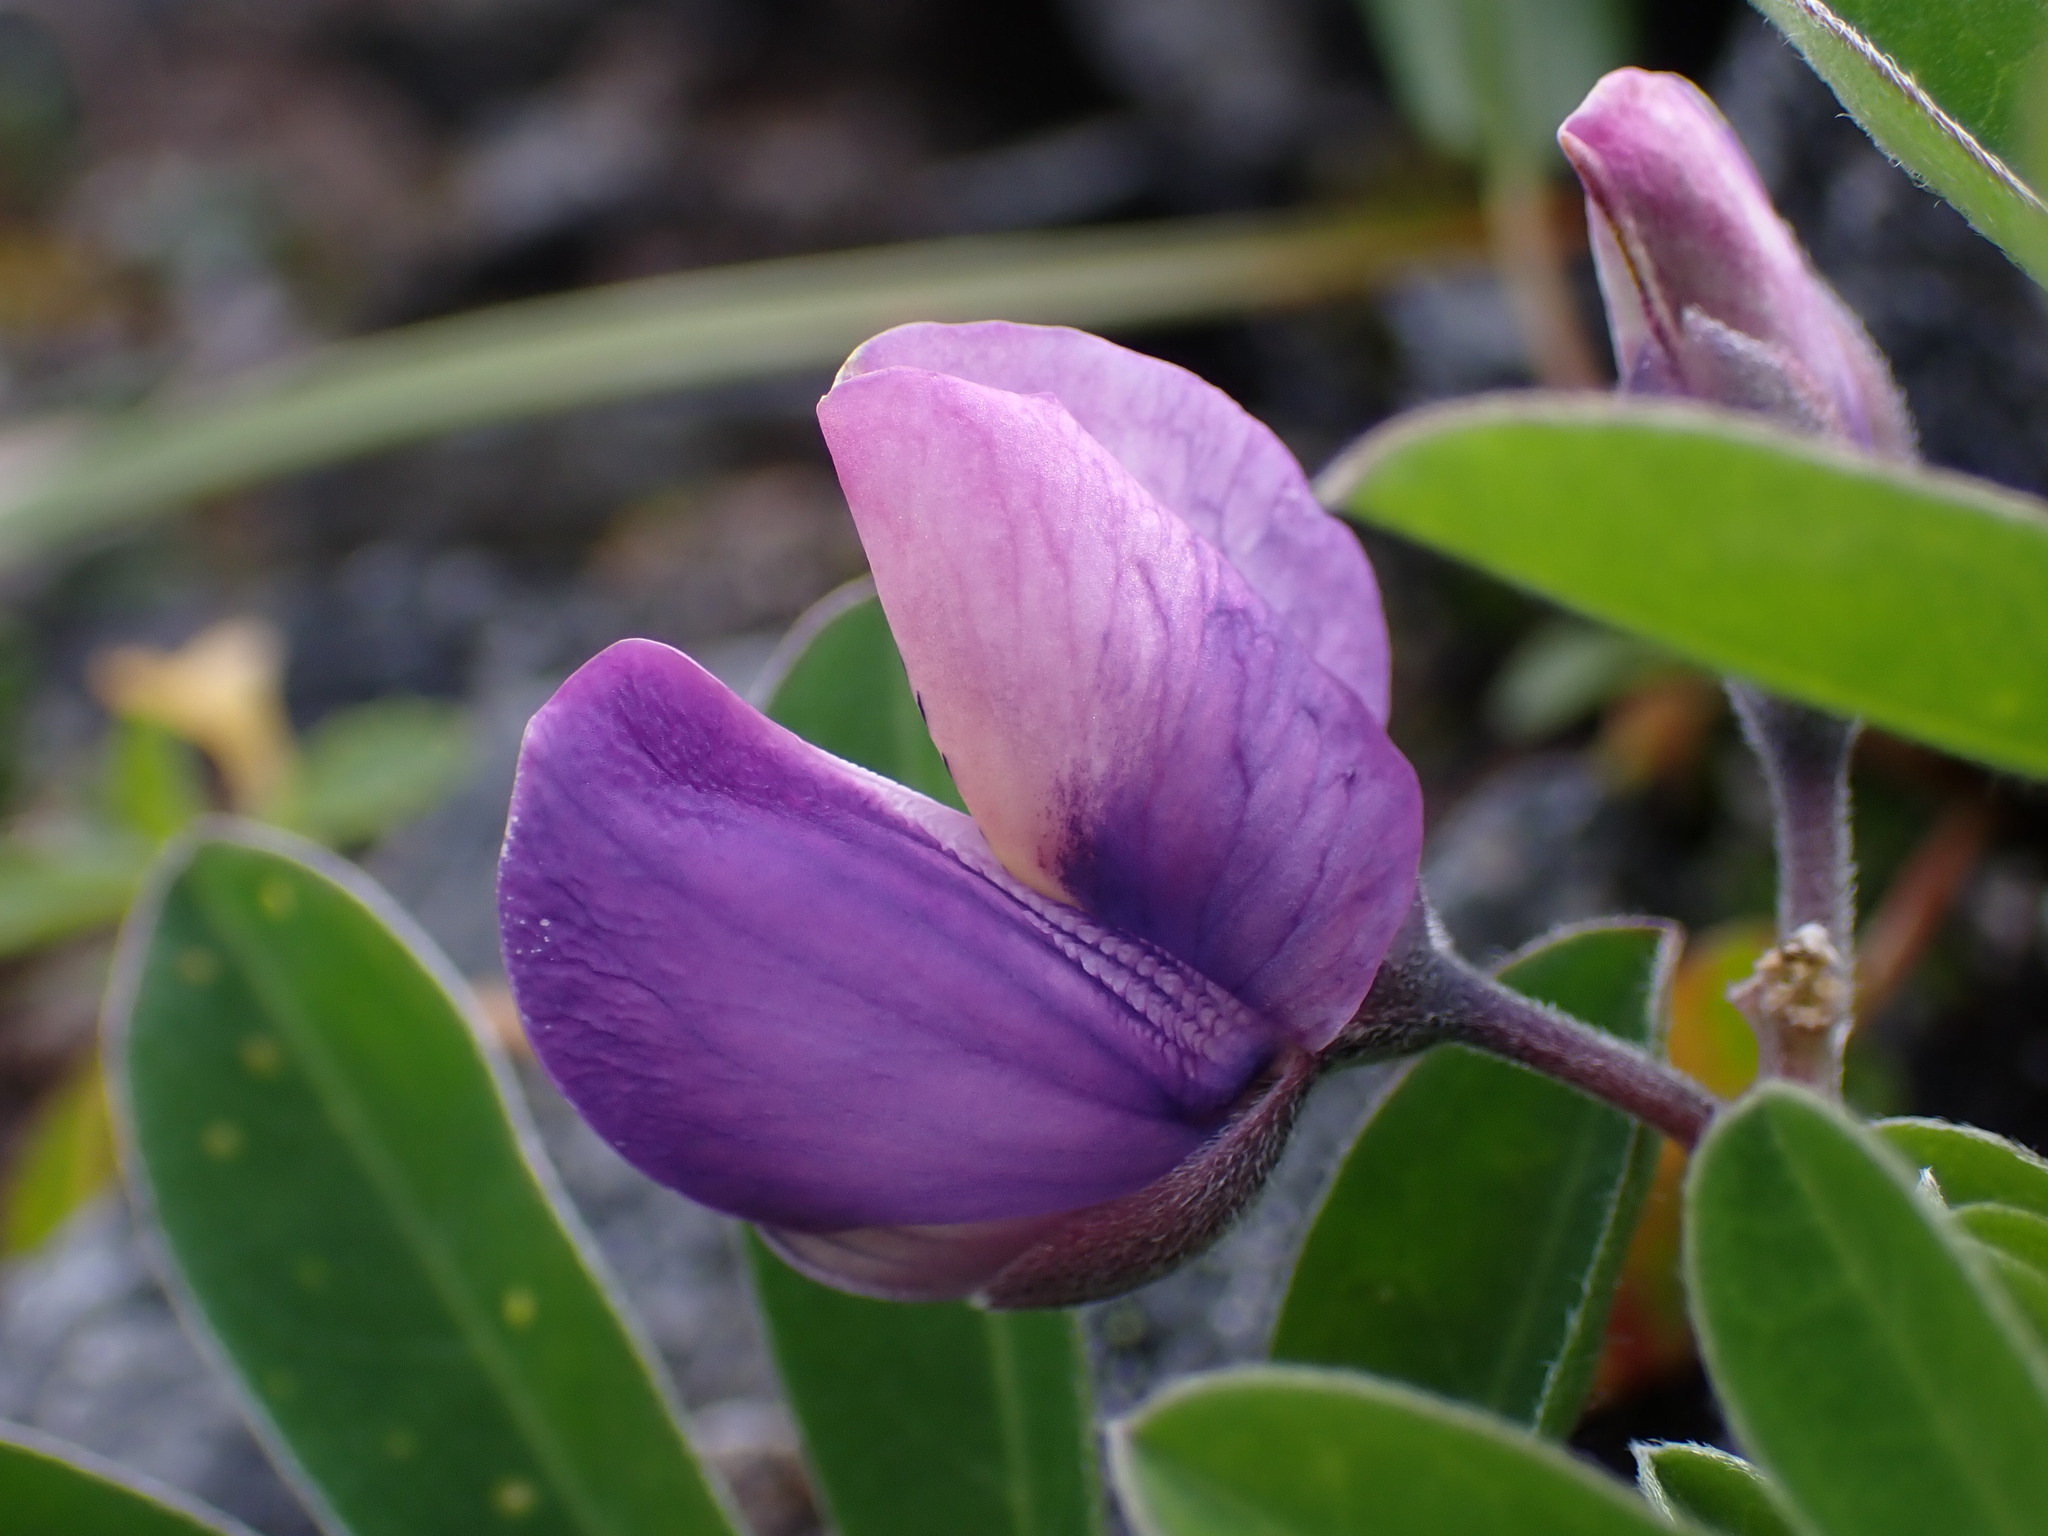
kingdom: Plantae
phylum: Tracheophyta
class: Magnoliopsida
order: Fabales
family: Fabaceae
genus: Lupinus
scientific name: Lupinus nootkatensis
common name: Nootka lupine
